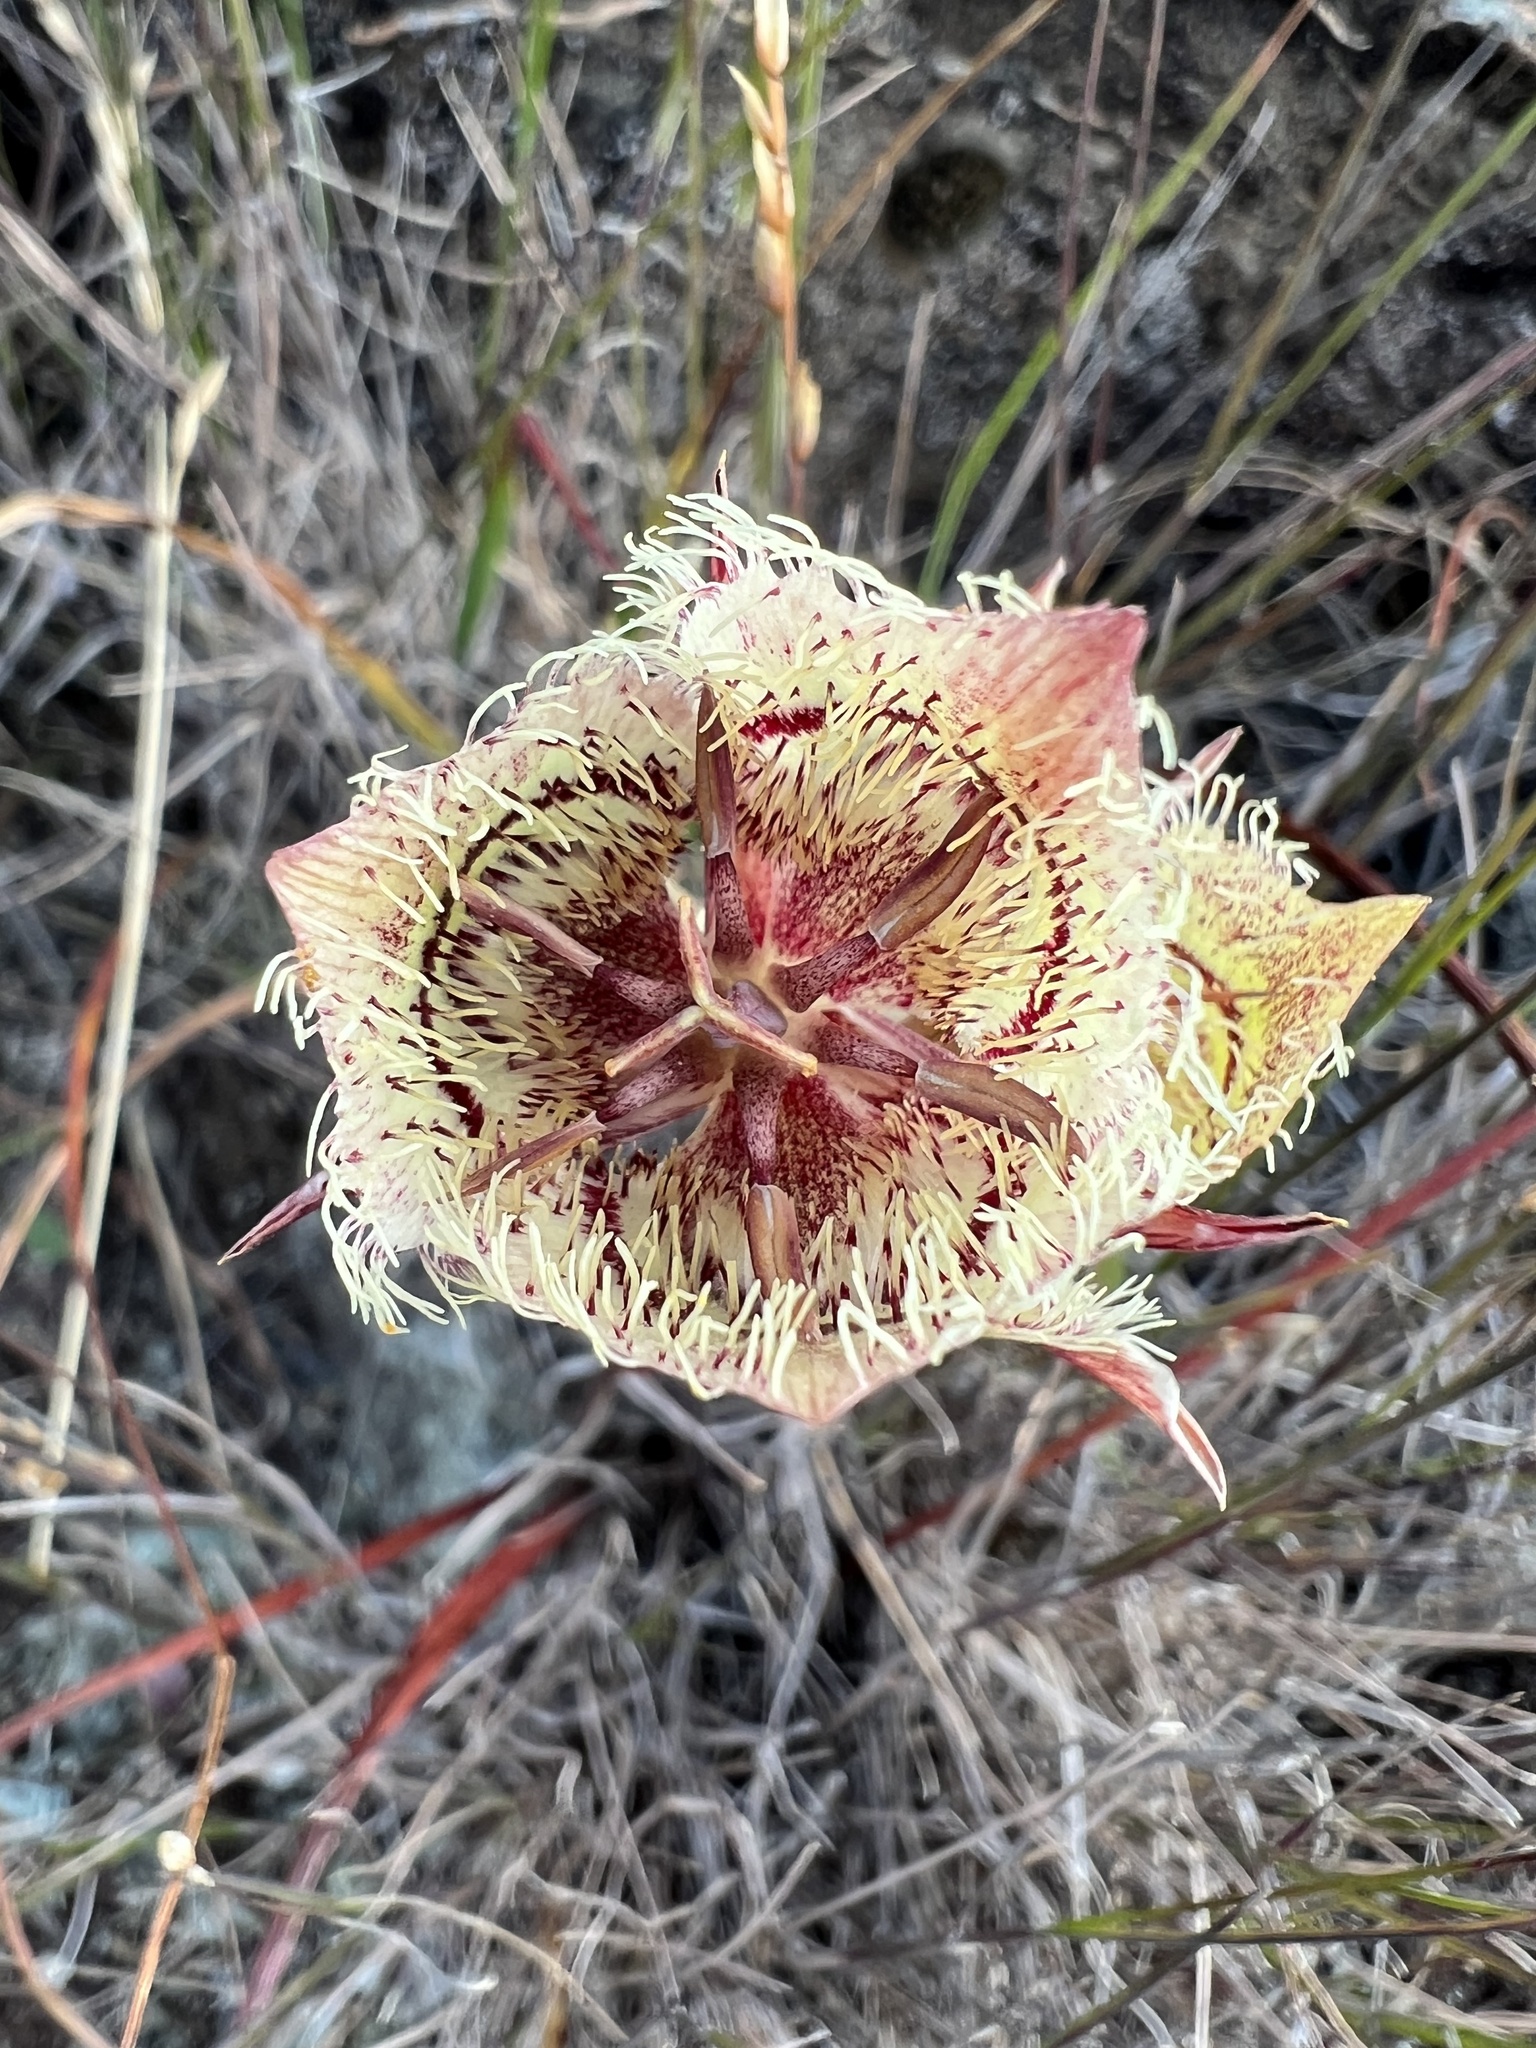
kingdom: Plantae
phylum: Tracheophyta
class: Liliopsida
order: Liliales
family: Liliaceae
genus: Calochortus
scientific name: Calochortus tiburonensis
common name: Tiburon mariposa-lily
